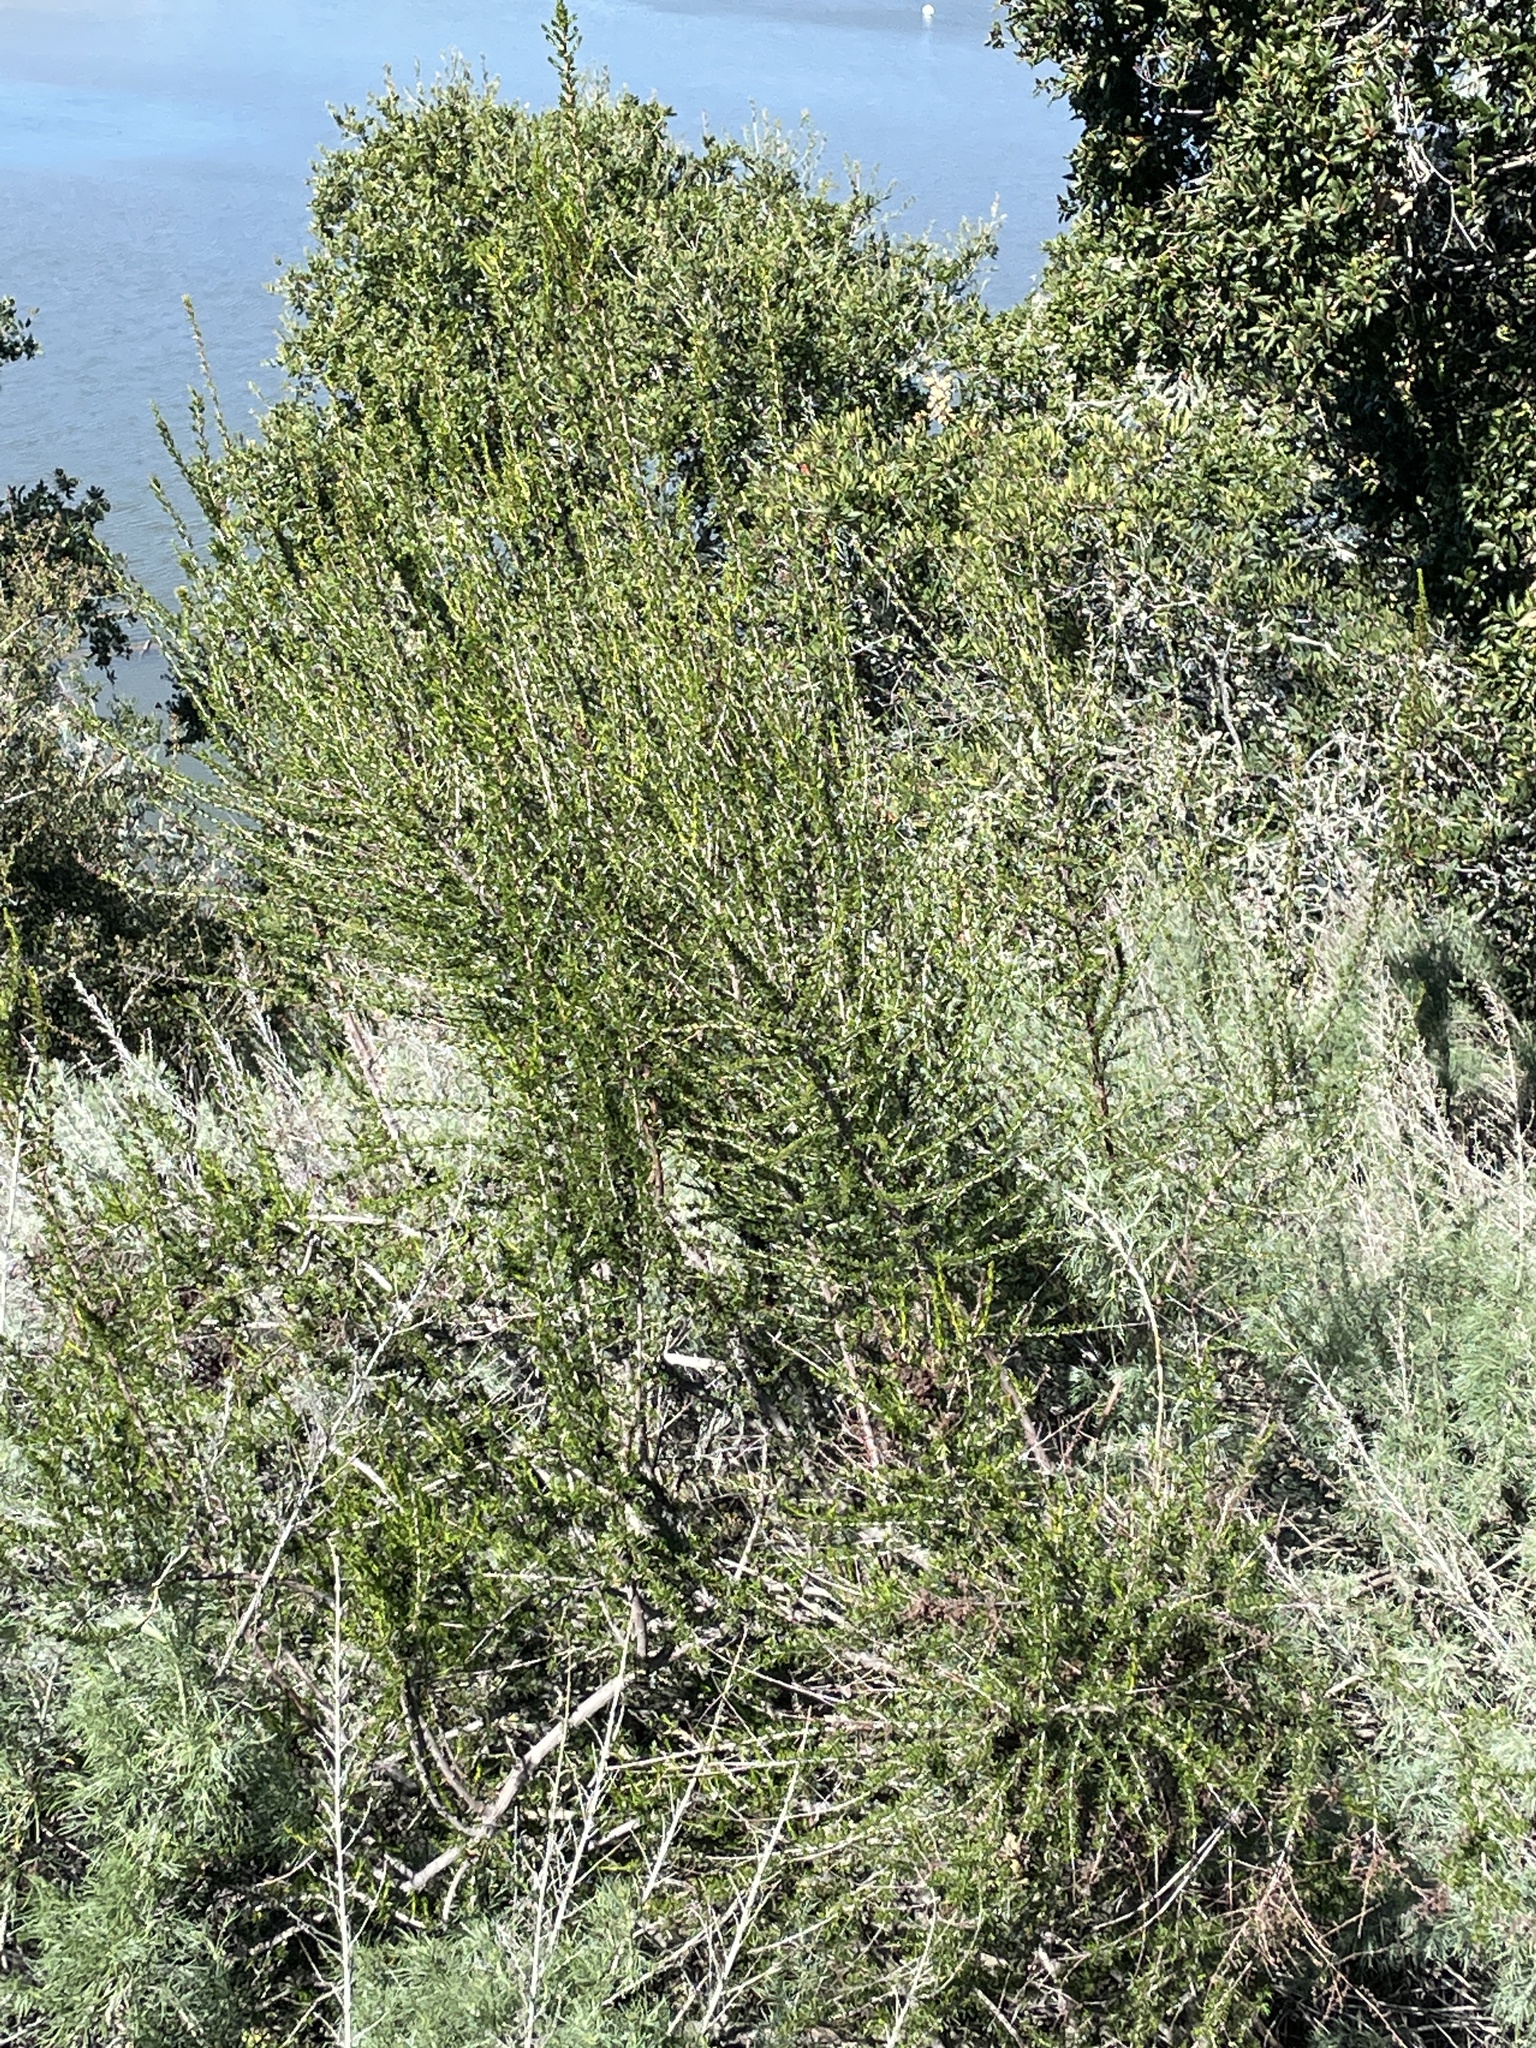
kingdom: Plantae
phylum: Tracheophyta
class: Magnoliopsida
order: Rosales
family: Rosaceae
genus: Adenostoma
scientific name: Adenostoma fasciculatum
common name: Chamise
